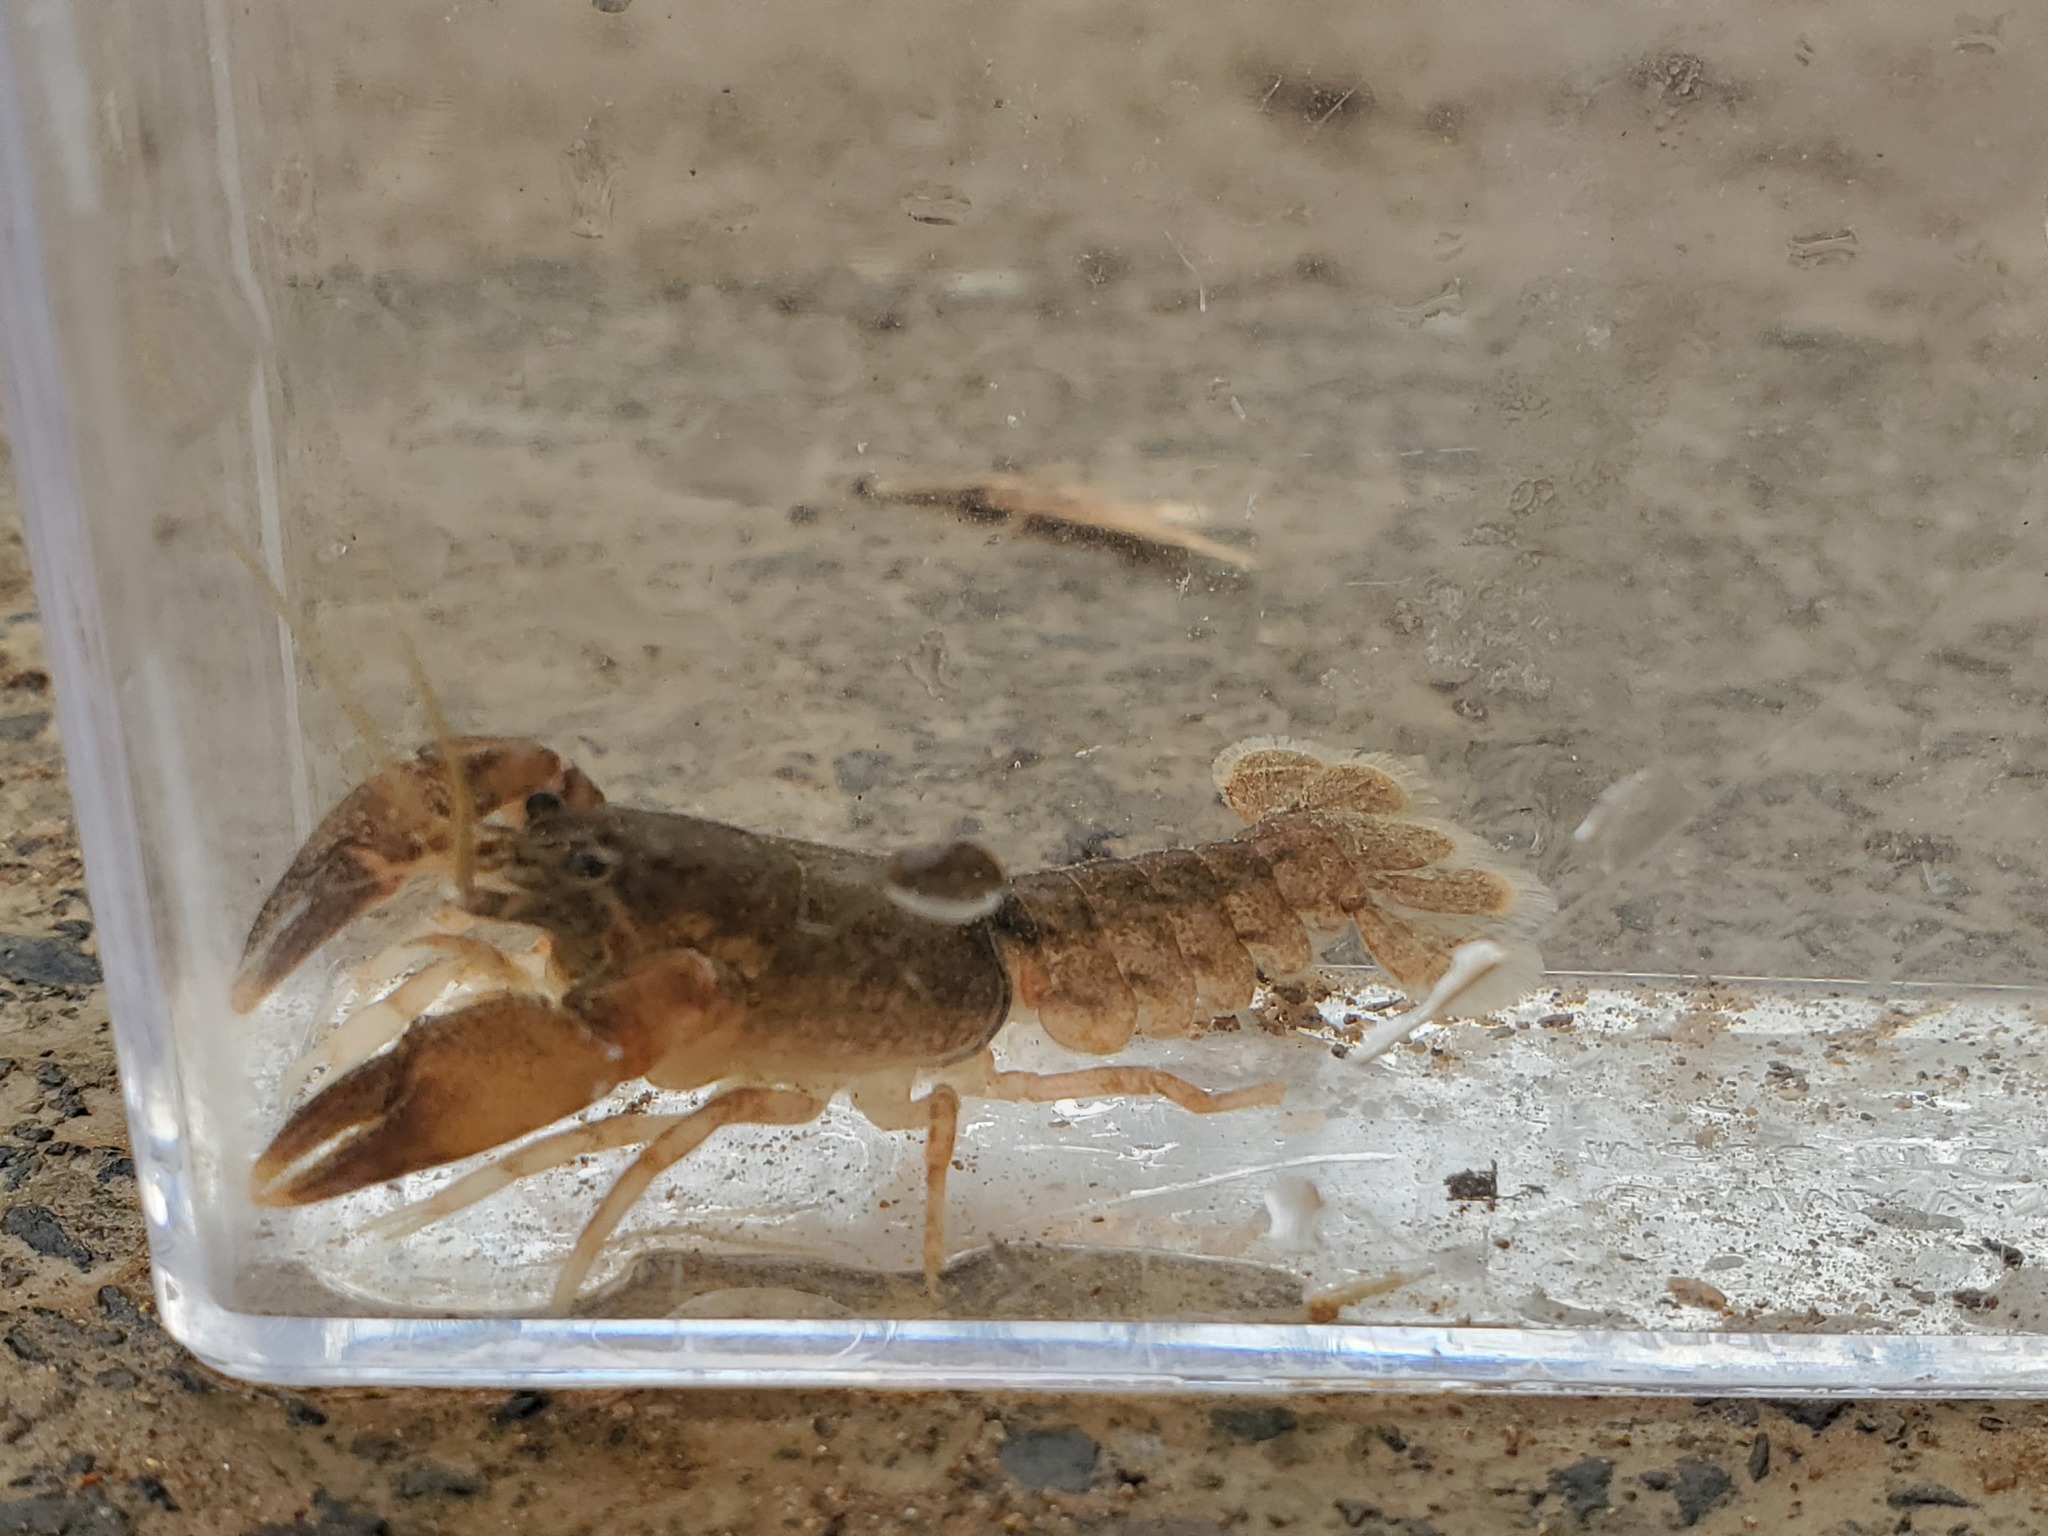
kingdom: Animalia
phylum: Arthropoda
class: Malacostraca
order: Decapoda
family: Cambaridae
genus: Cambarus
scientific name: Cambarus graysoni
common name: Twospot crayfish
